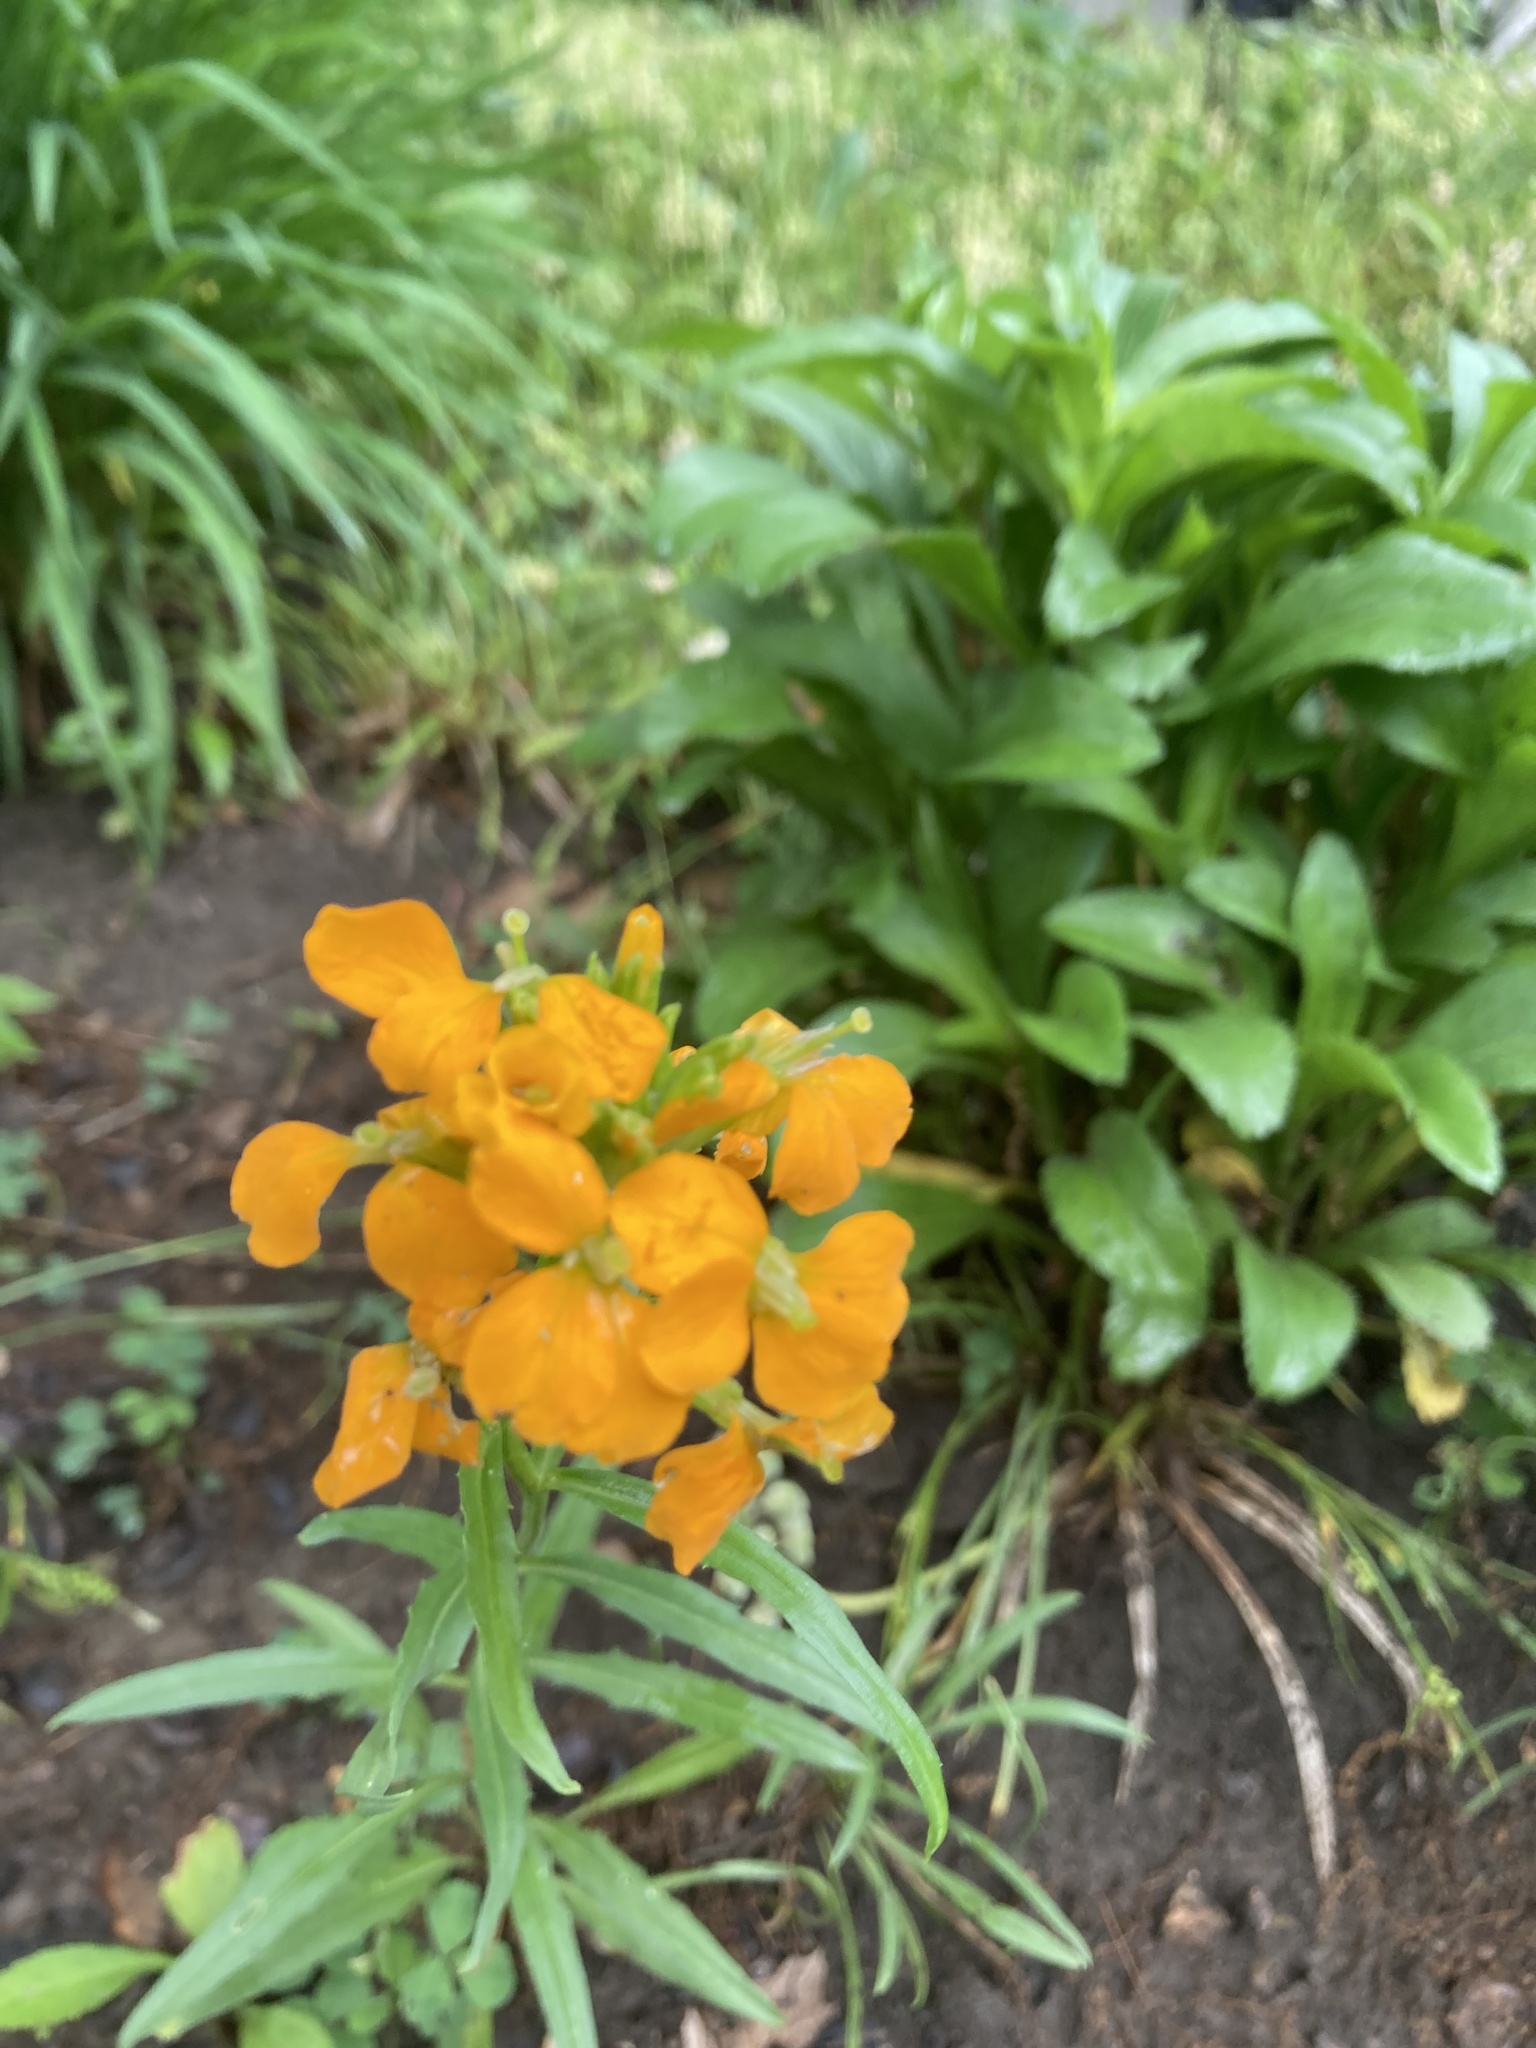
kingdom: Plantae
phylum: Tracheophyta
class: Magnoliopsida
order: Brassicales
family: Brassicaceae
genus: Erysimum
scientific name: Erysimum capitatum
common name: Western wallflower
